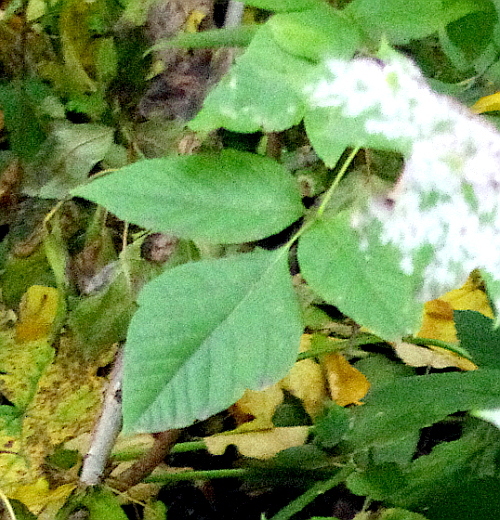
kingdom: Plantae
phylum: Tracheophyta
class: Magnoliopsida
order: Sapindales
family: Sapindaceae
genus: Acer
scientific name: Acer negundo
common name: Ashleaf maple
